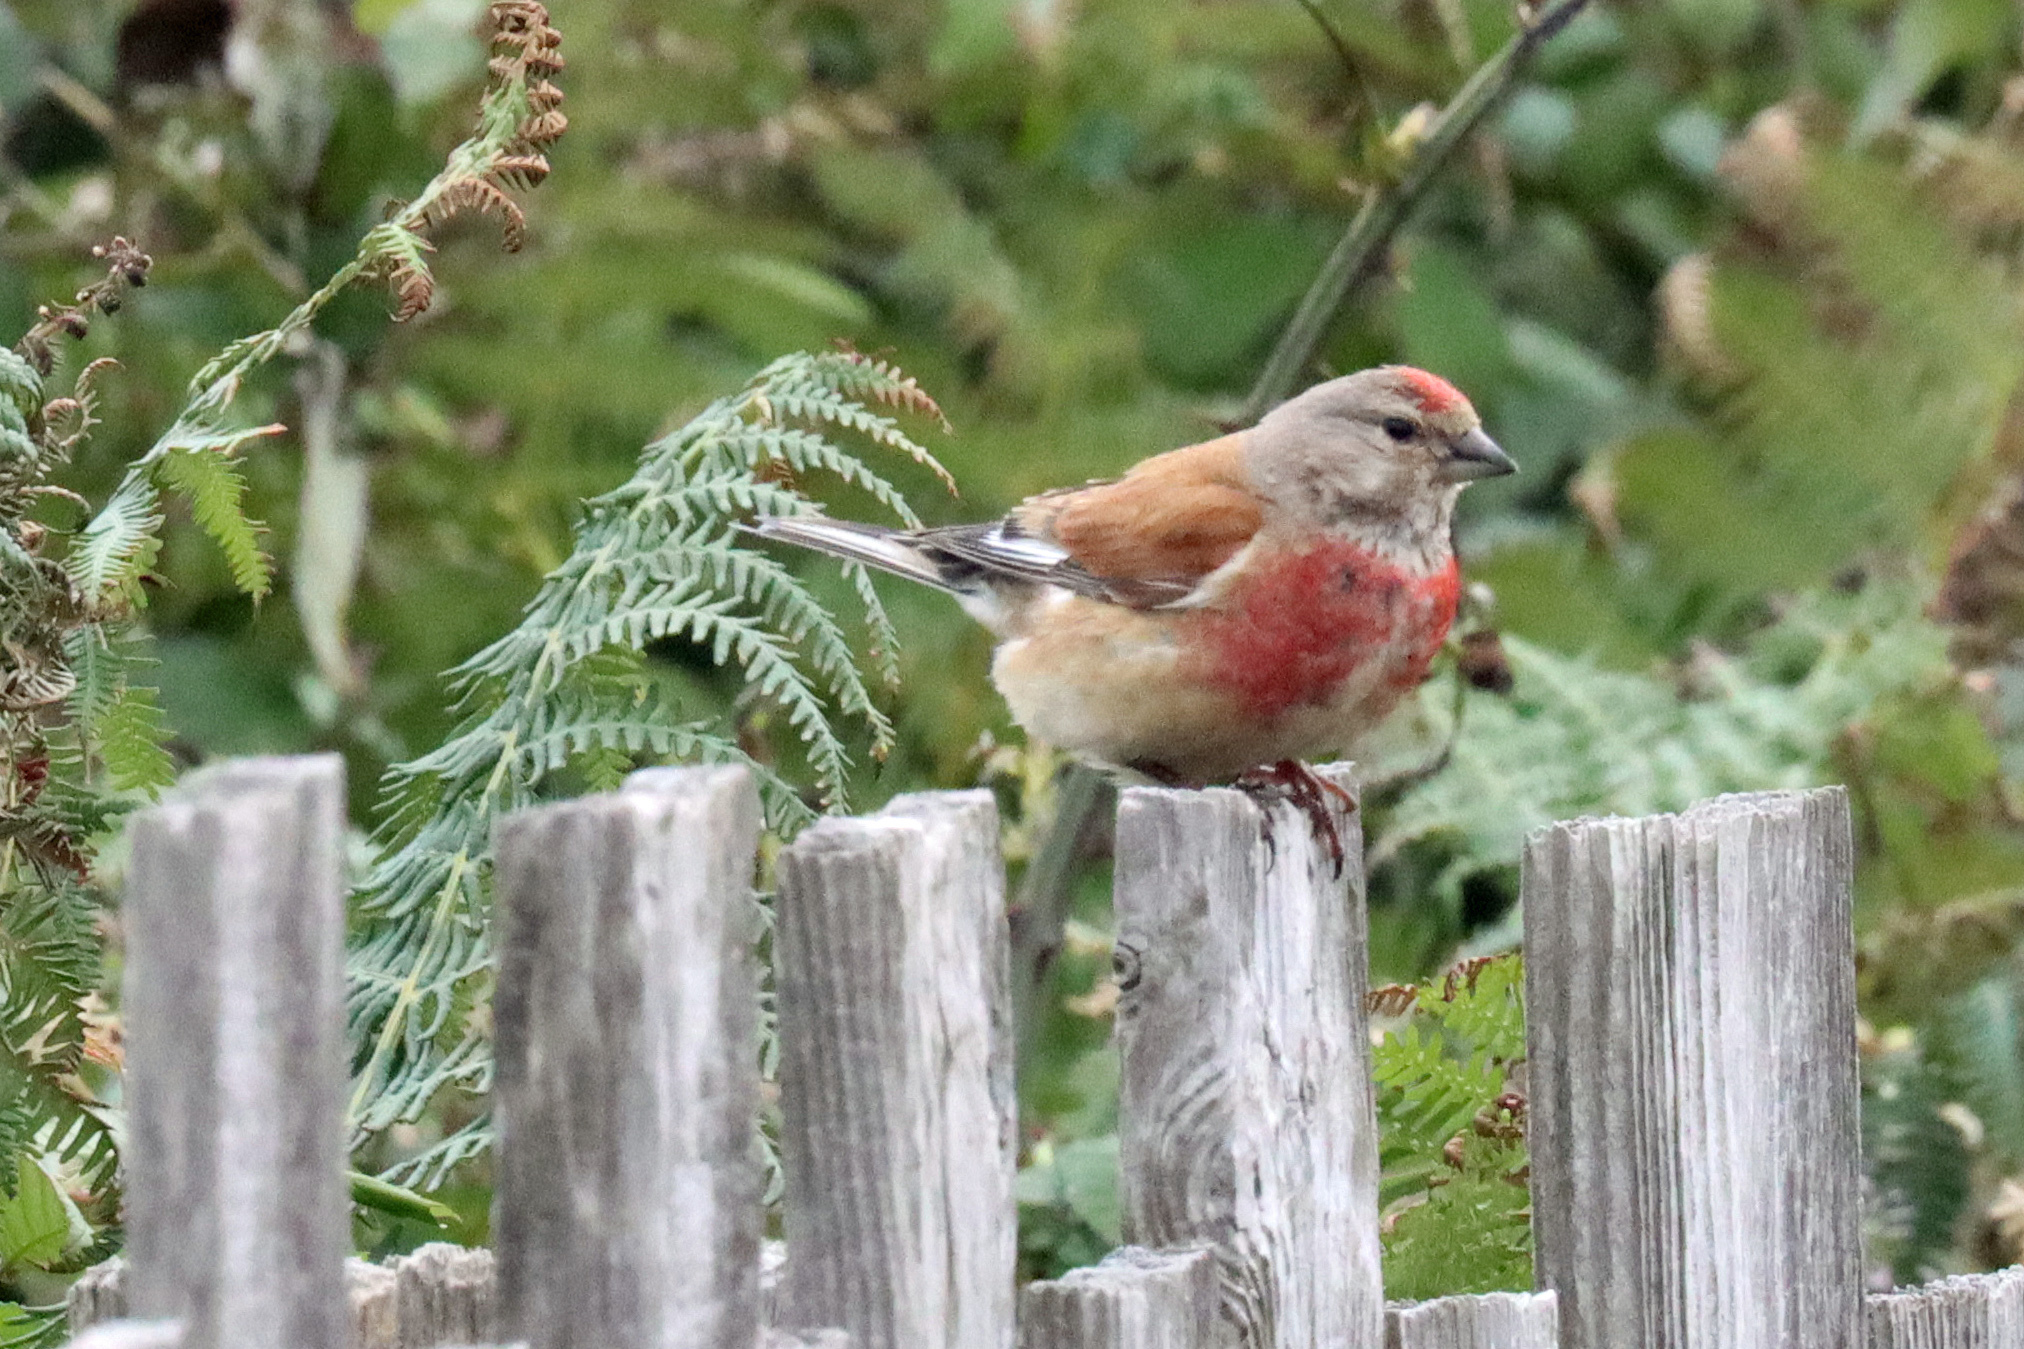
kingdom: Animalia
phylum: Chordata
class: Aves
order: Passeriformes
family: Fringillidae
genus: Linaria
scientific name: Linaria cannabina
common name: Common linnet
